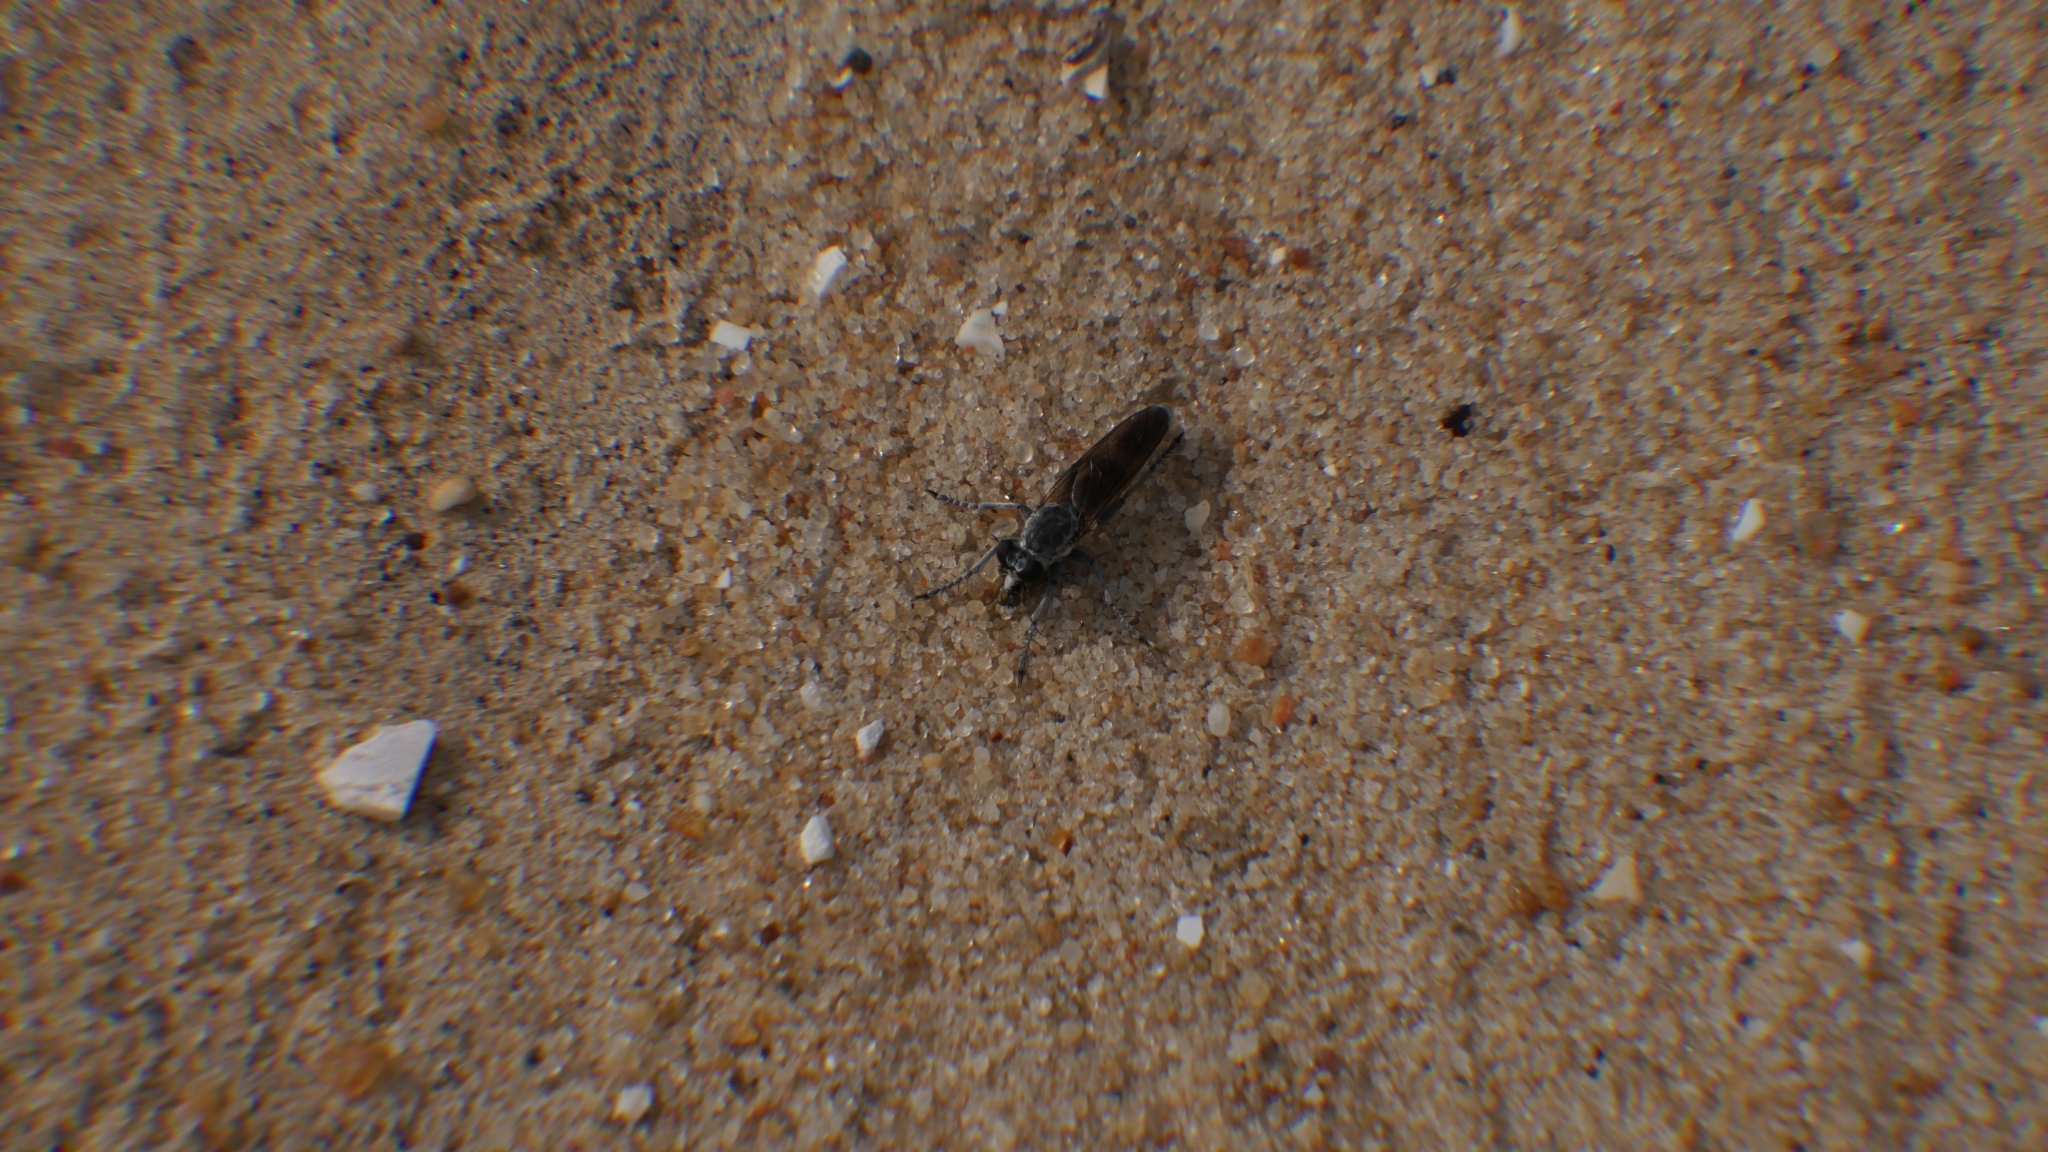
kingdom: Animalia
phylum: Arthropoda
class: Insecta
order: Diptera
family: Asilidae
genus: Stichopogon
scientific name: Stichopogon trifasciatus
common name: Three-banded robber fly
